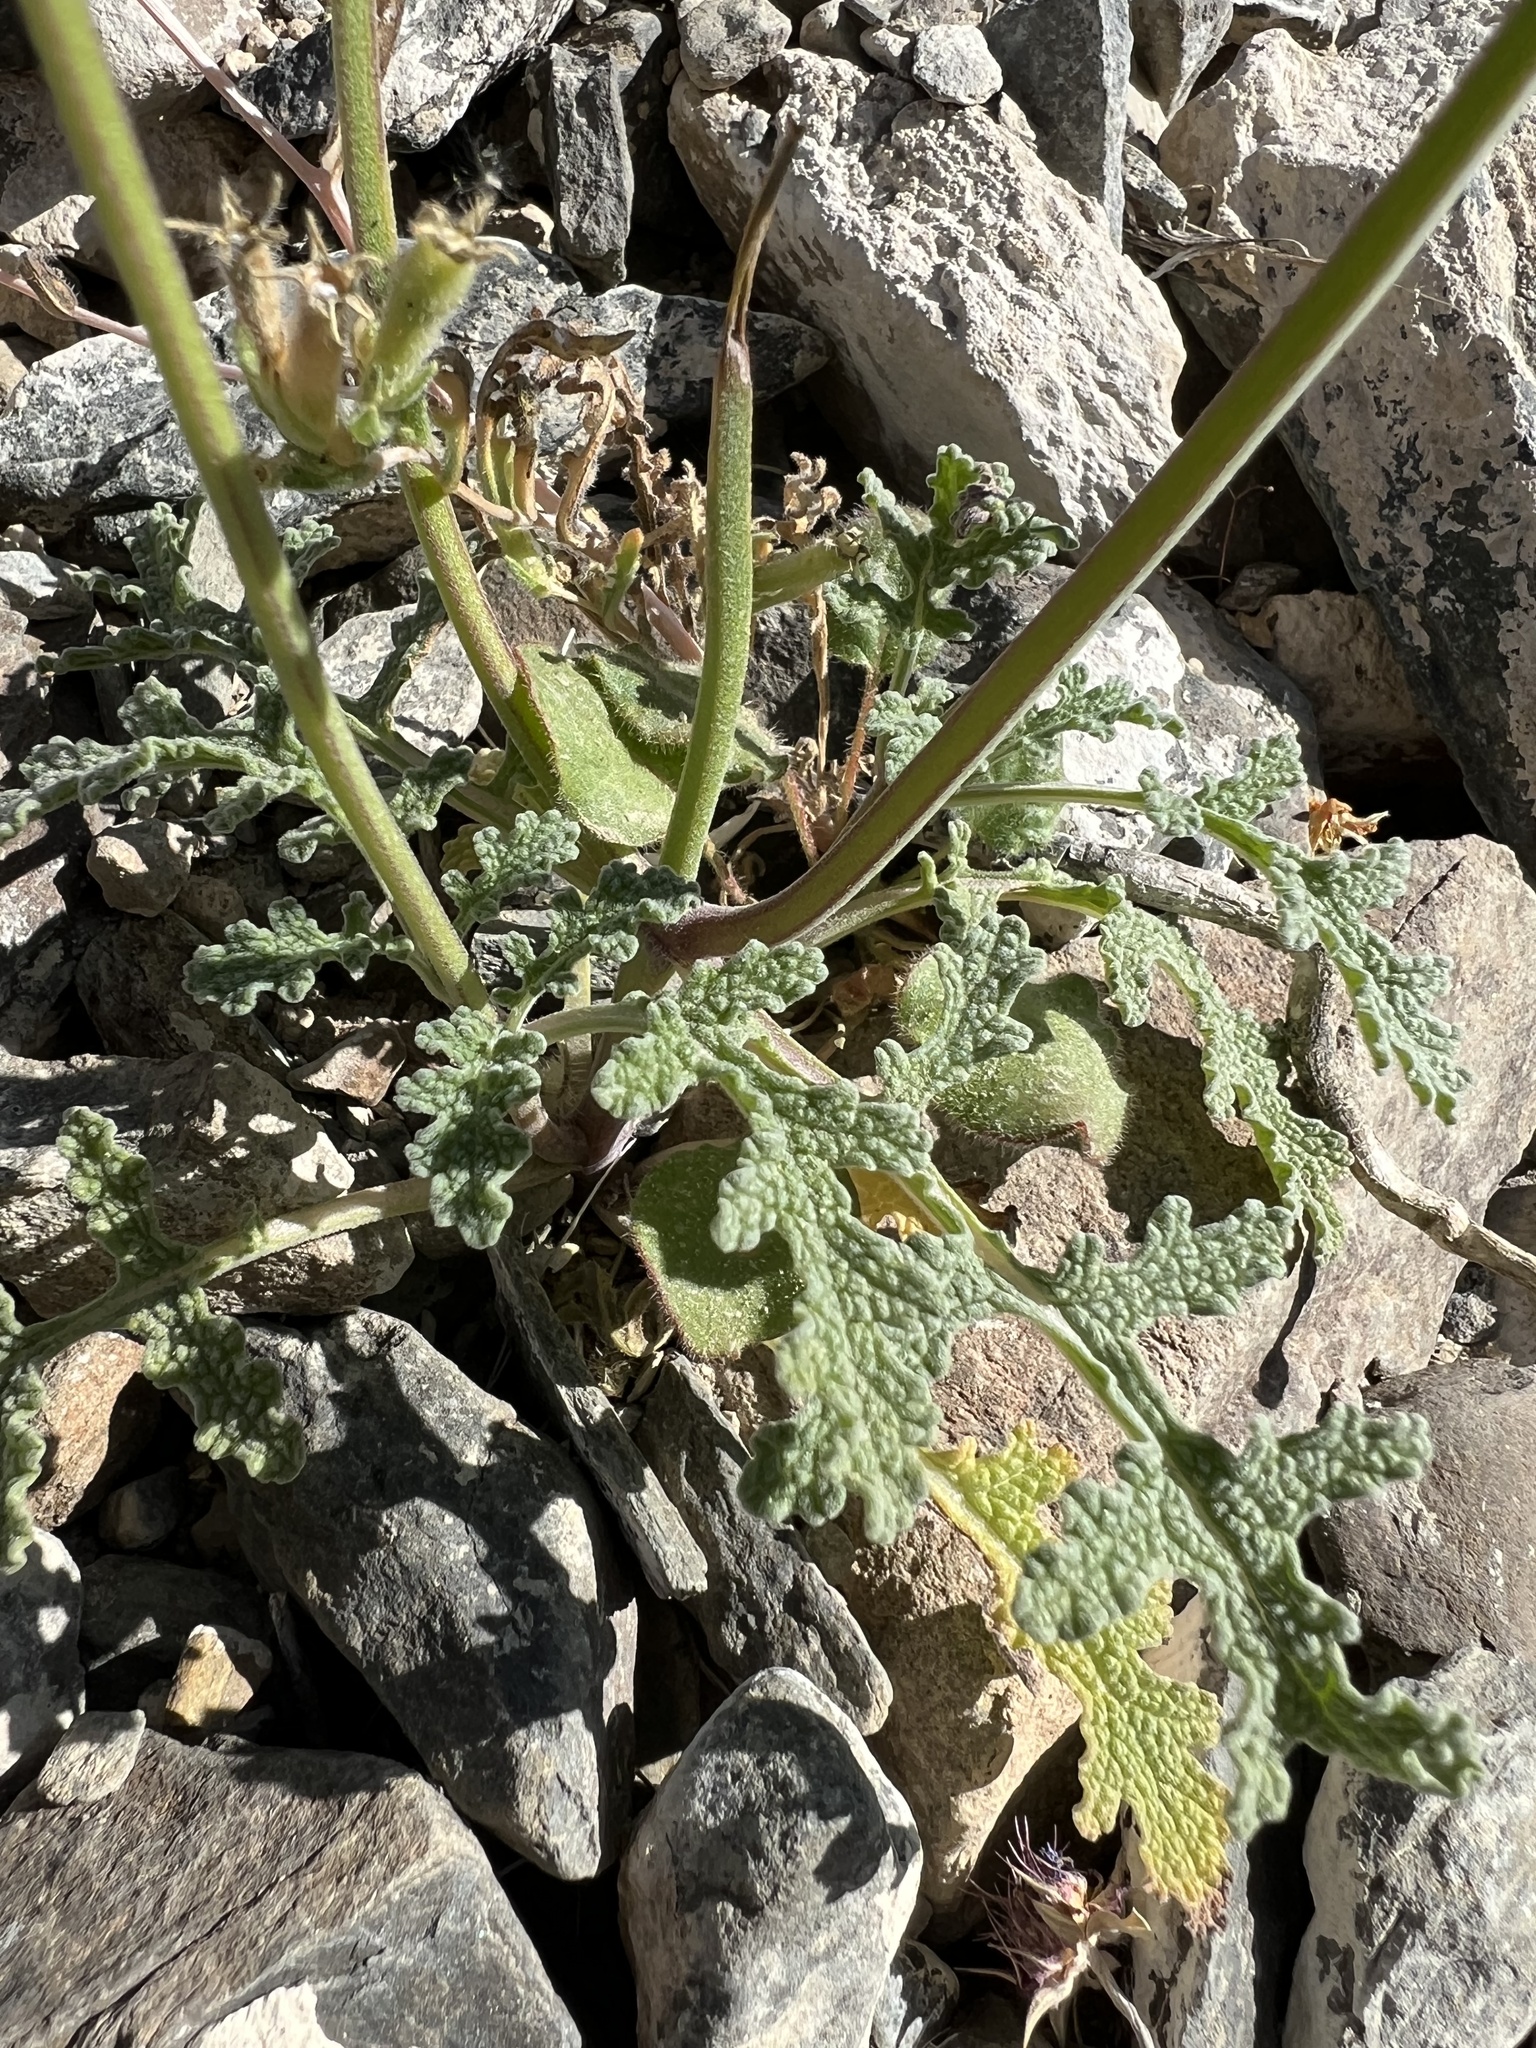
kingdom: Plantae
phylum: Tracheophyta
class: Magnoliopsida
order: Lamiales
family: Lamiaceae
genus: Salvia
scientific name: Salvia columbariae
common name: Chia
